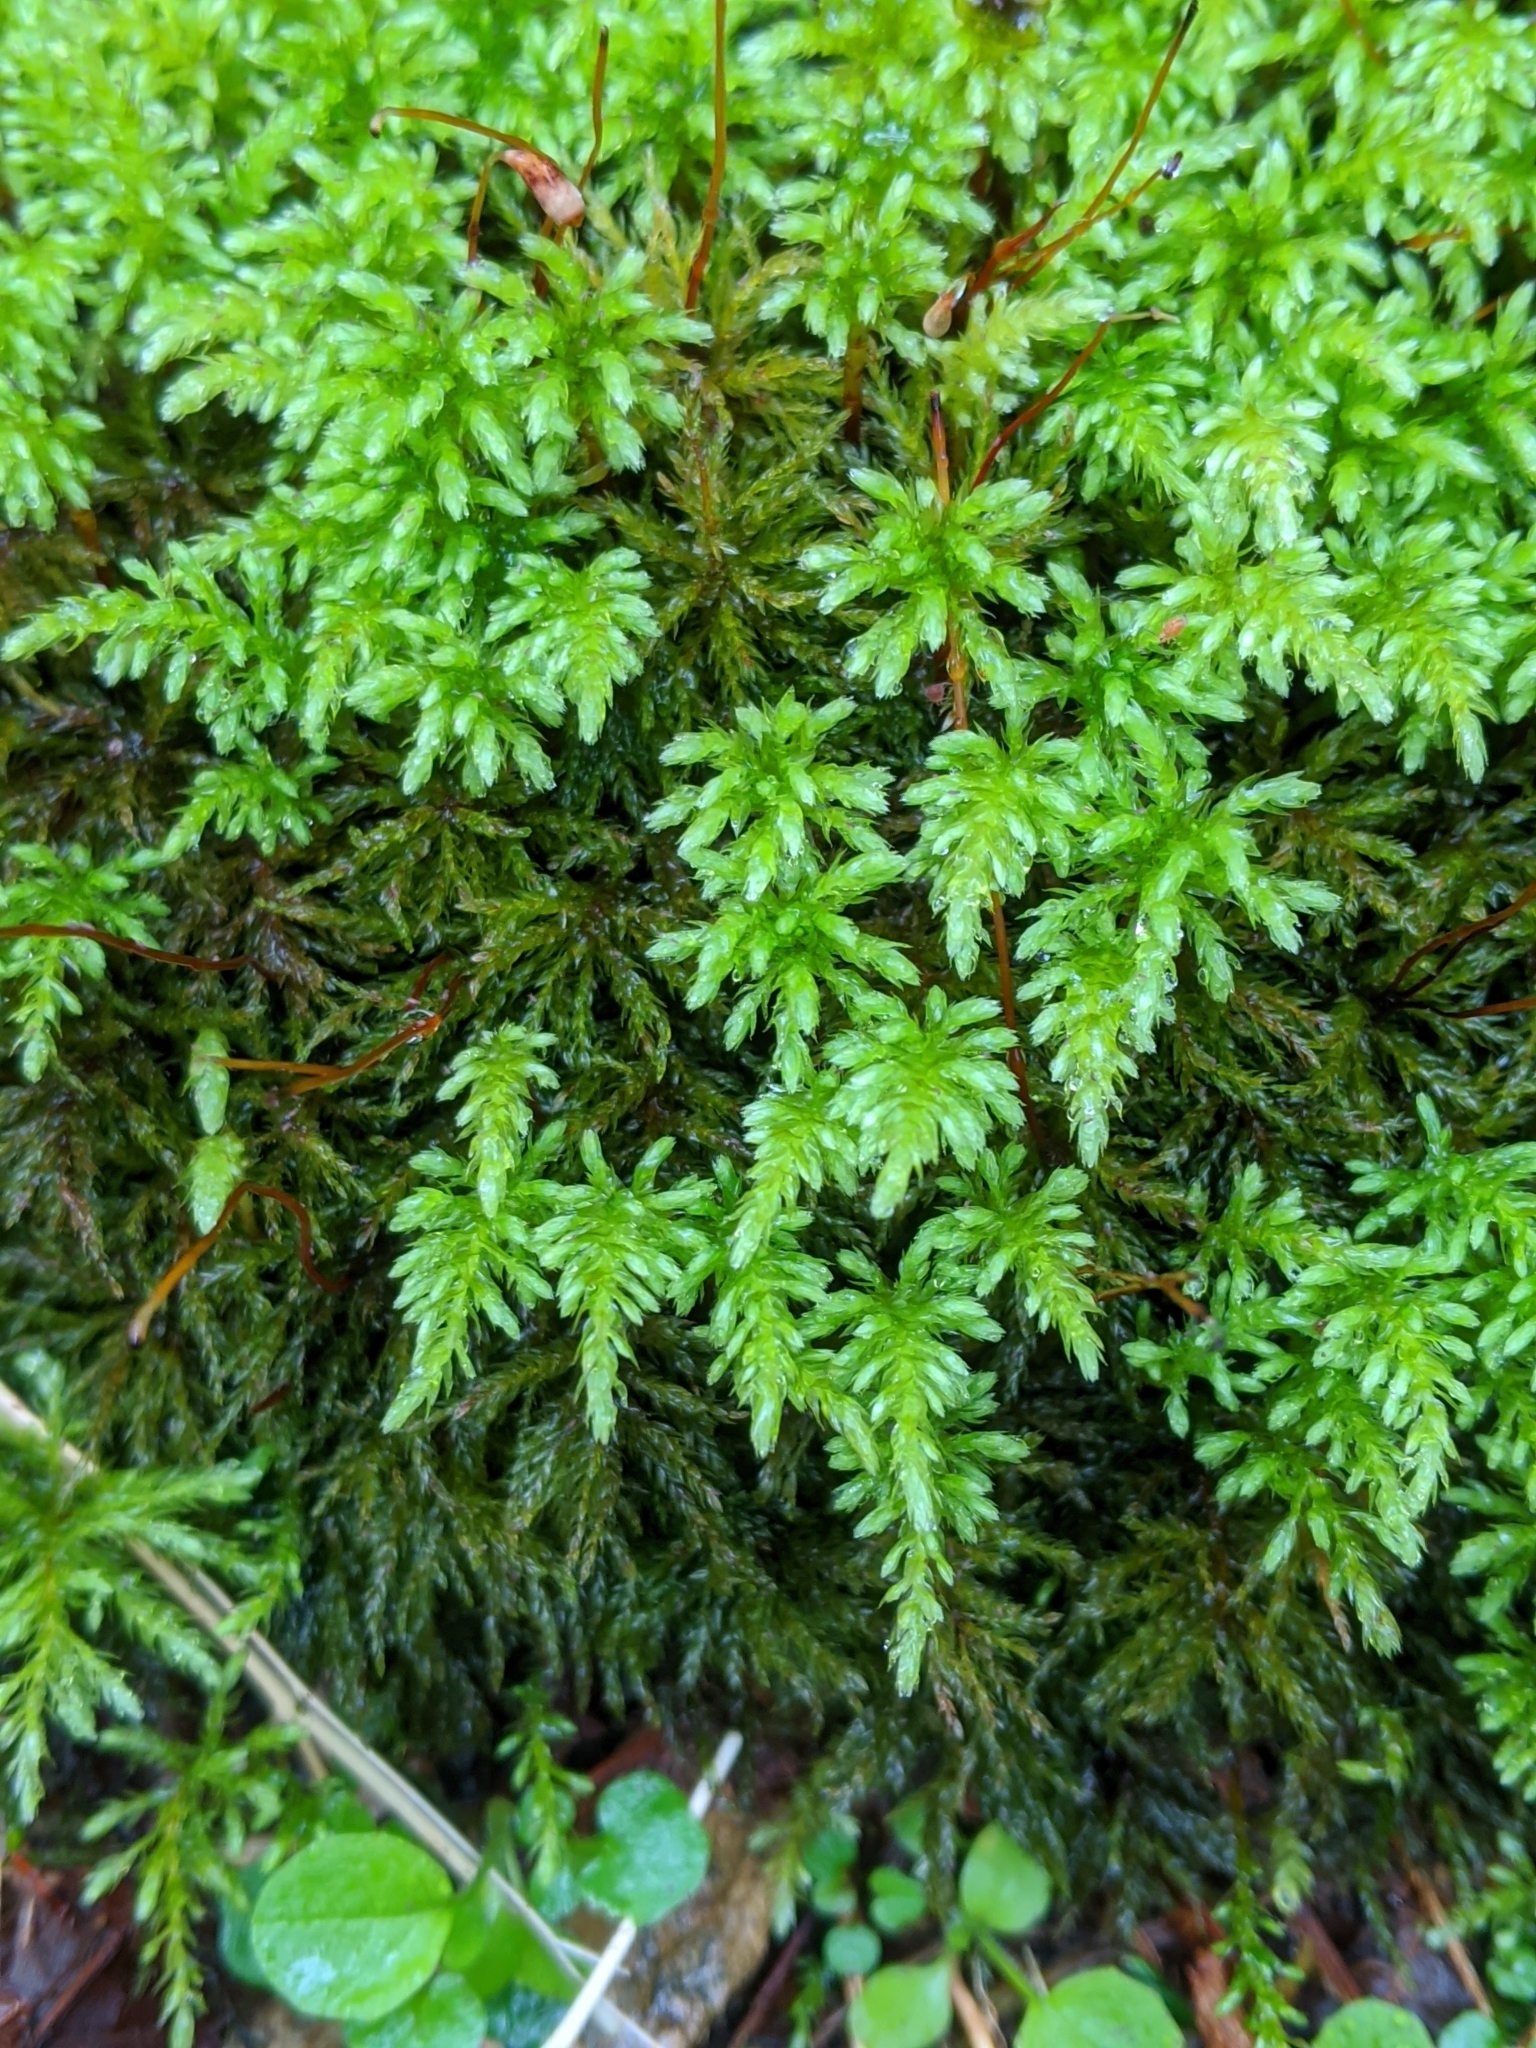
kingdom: Plantae
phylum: Bryophyta
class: Bryopsida
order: Bryales
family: Mniaceae
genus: Leucolepis
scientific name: Leucolepis acanthoneura
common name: Leucolepis umbrella moss
